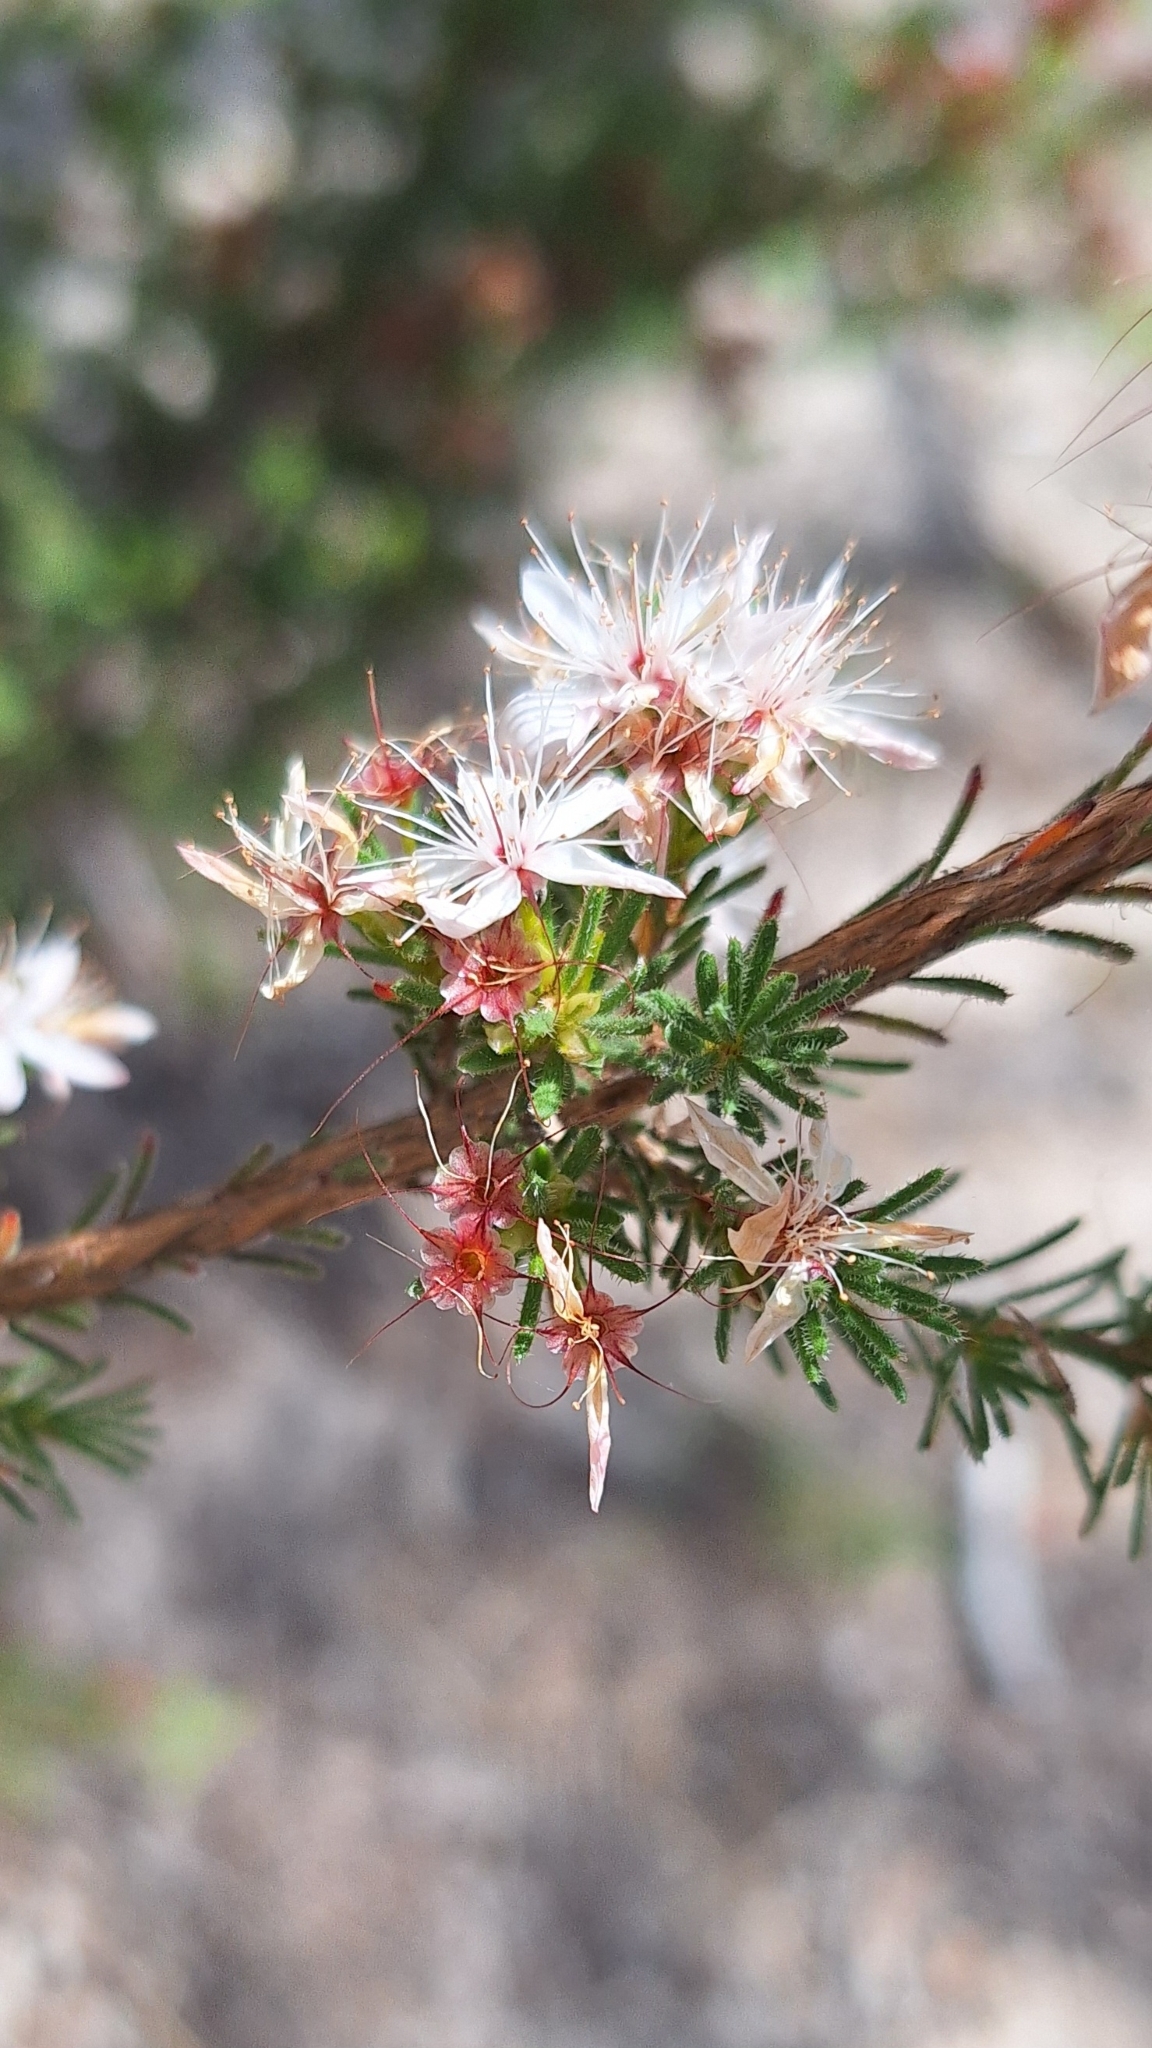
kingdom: Plantae
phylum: Tracheophyta
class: Magnoliopsida
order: Myrtales
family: Myrtaceae
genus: Calytrix
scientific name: Calytrix tetragona
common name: Common fringe myrtle
